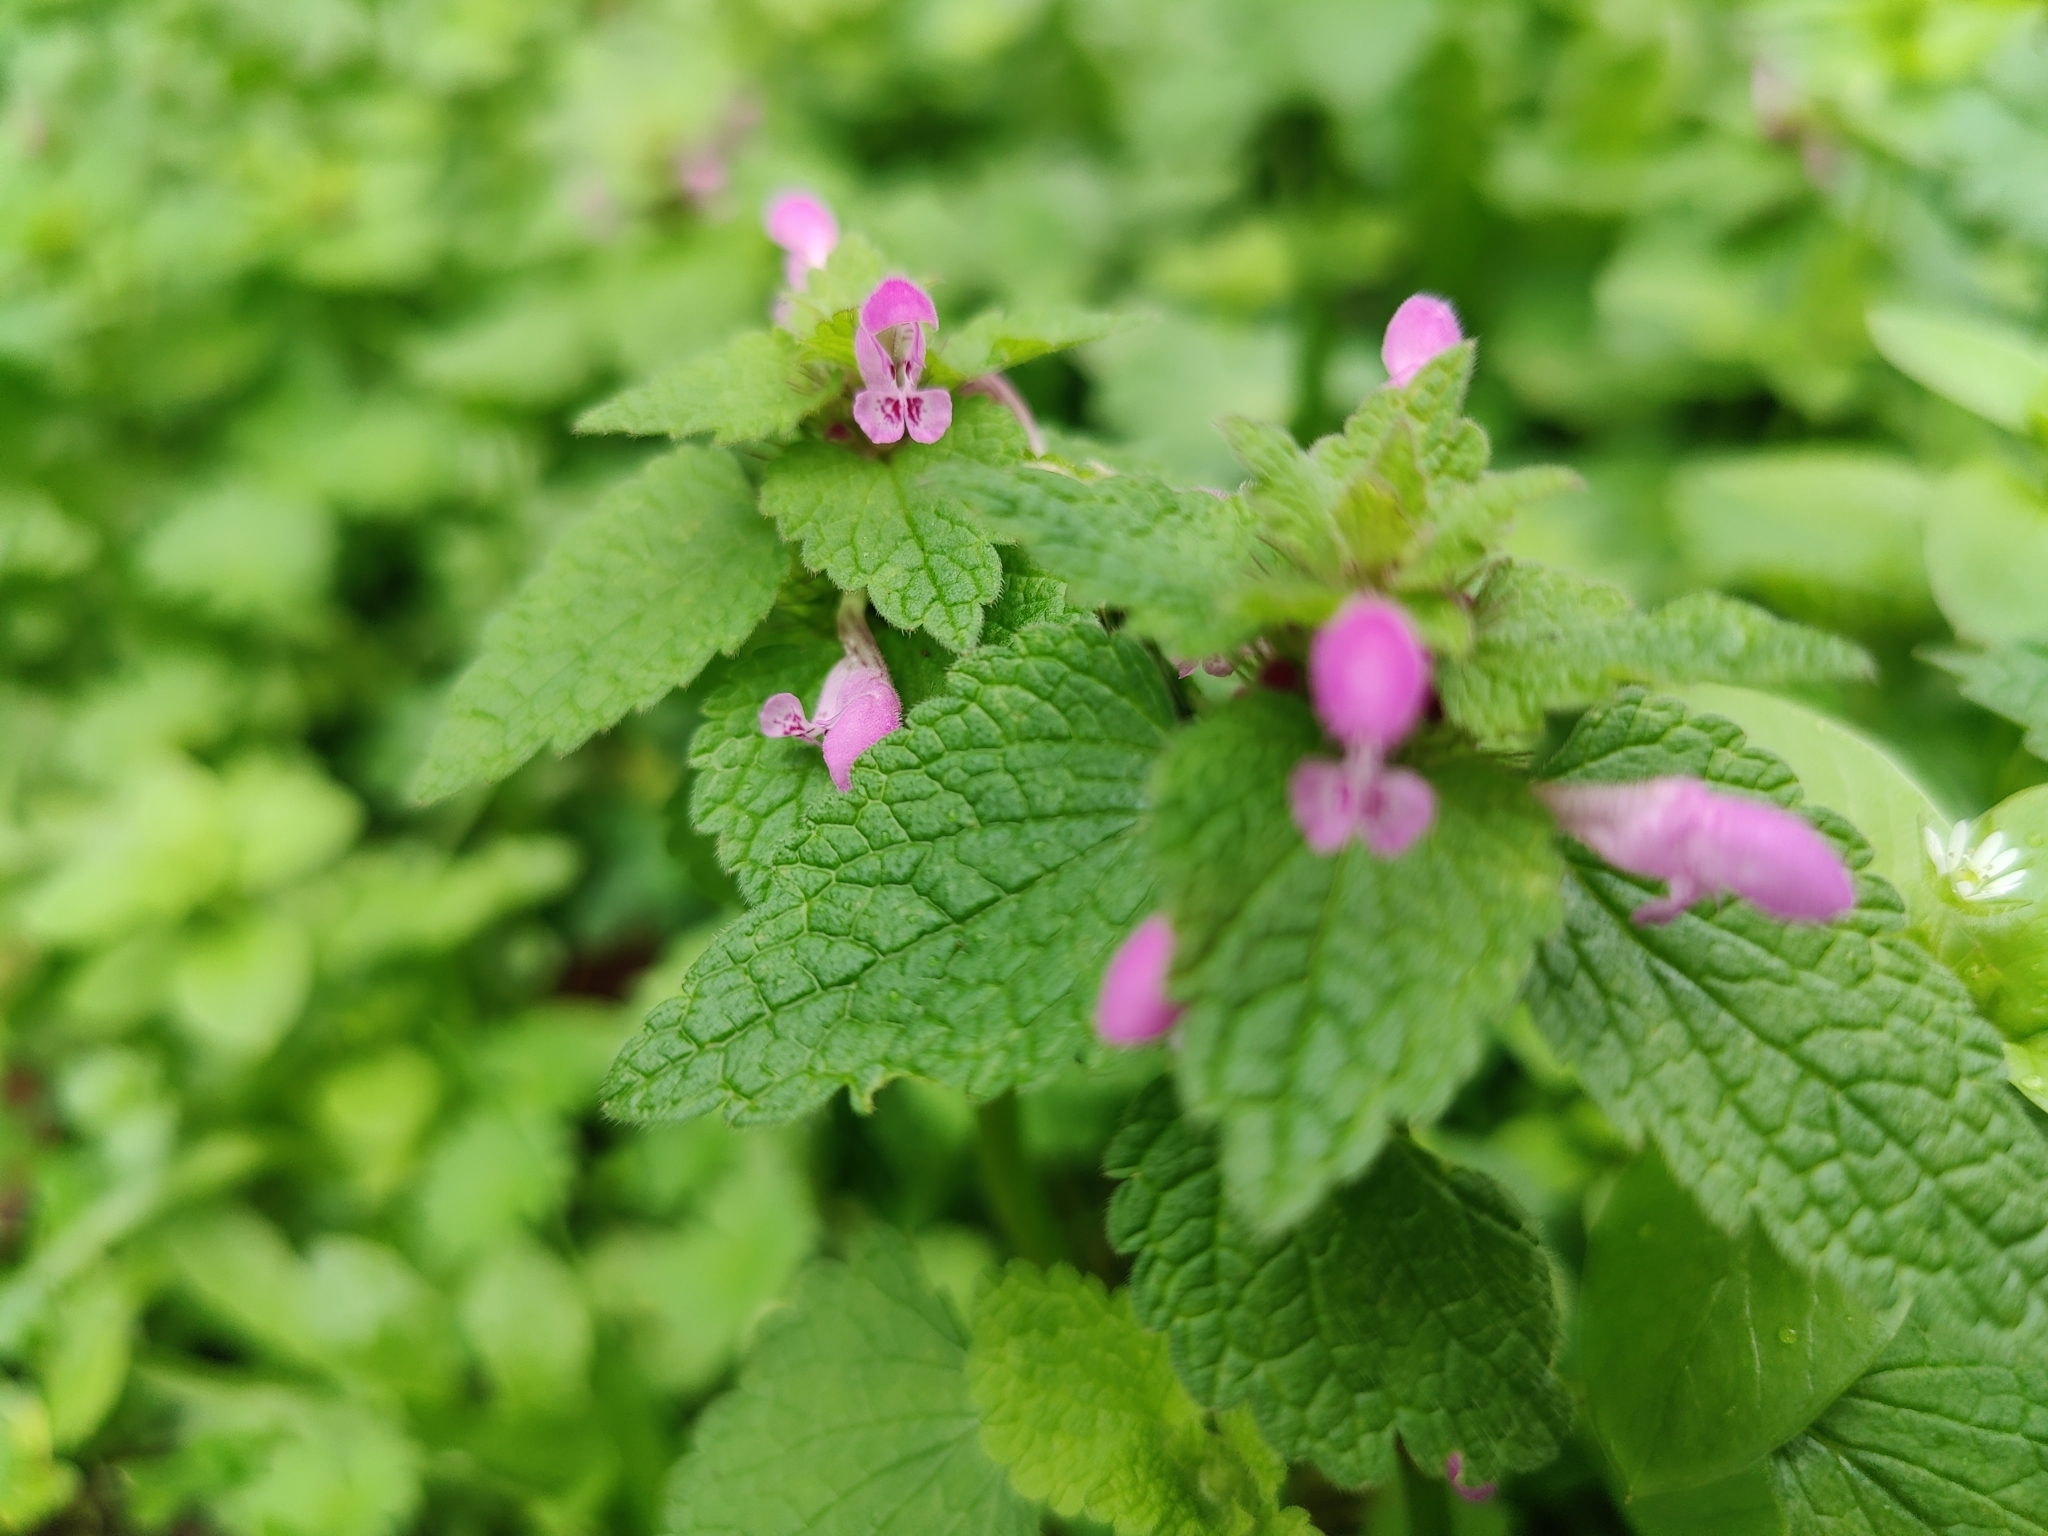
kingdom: Plantae
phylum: Tracheophyta
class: Magnoliopsida
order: Lamiales
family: Lamiaceae
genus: Lamium
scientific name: Lamium purpureum
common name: Red dead-nettle
